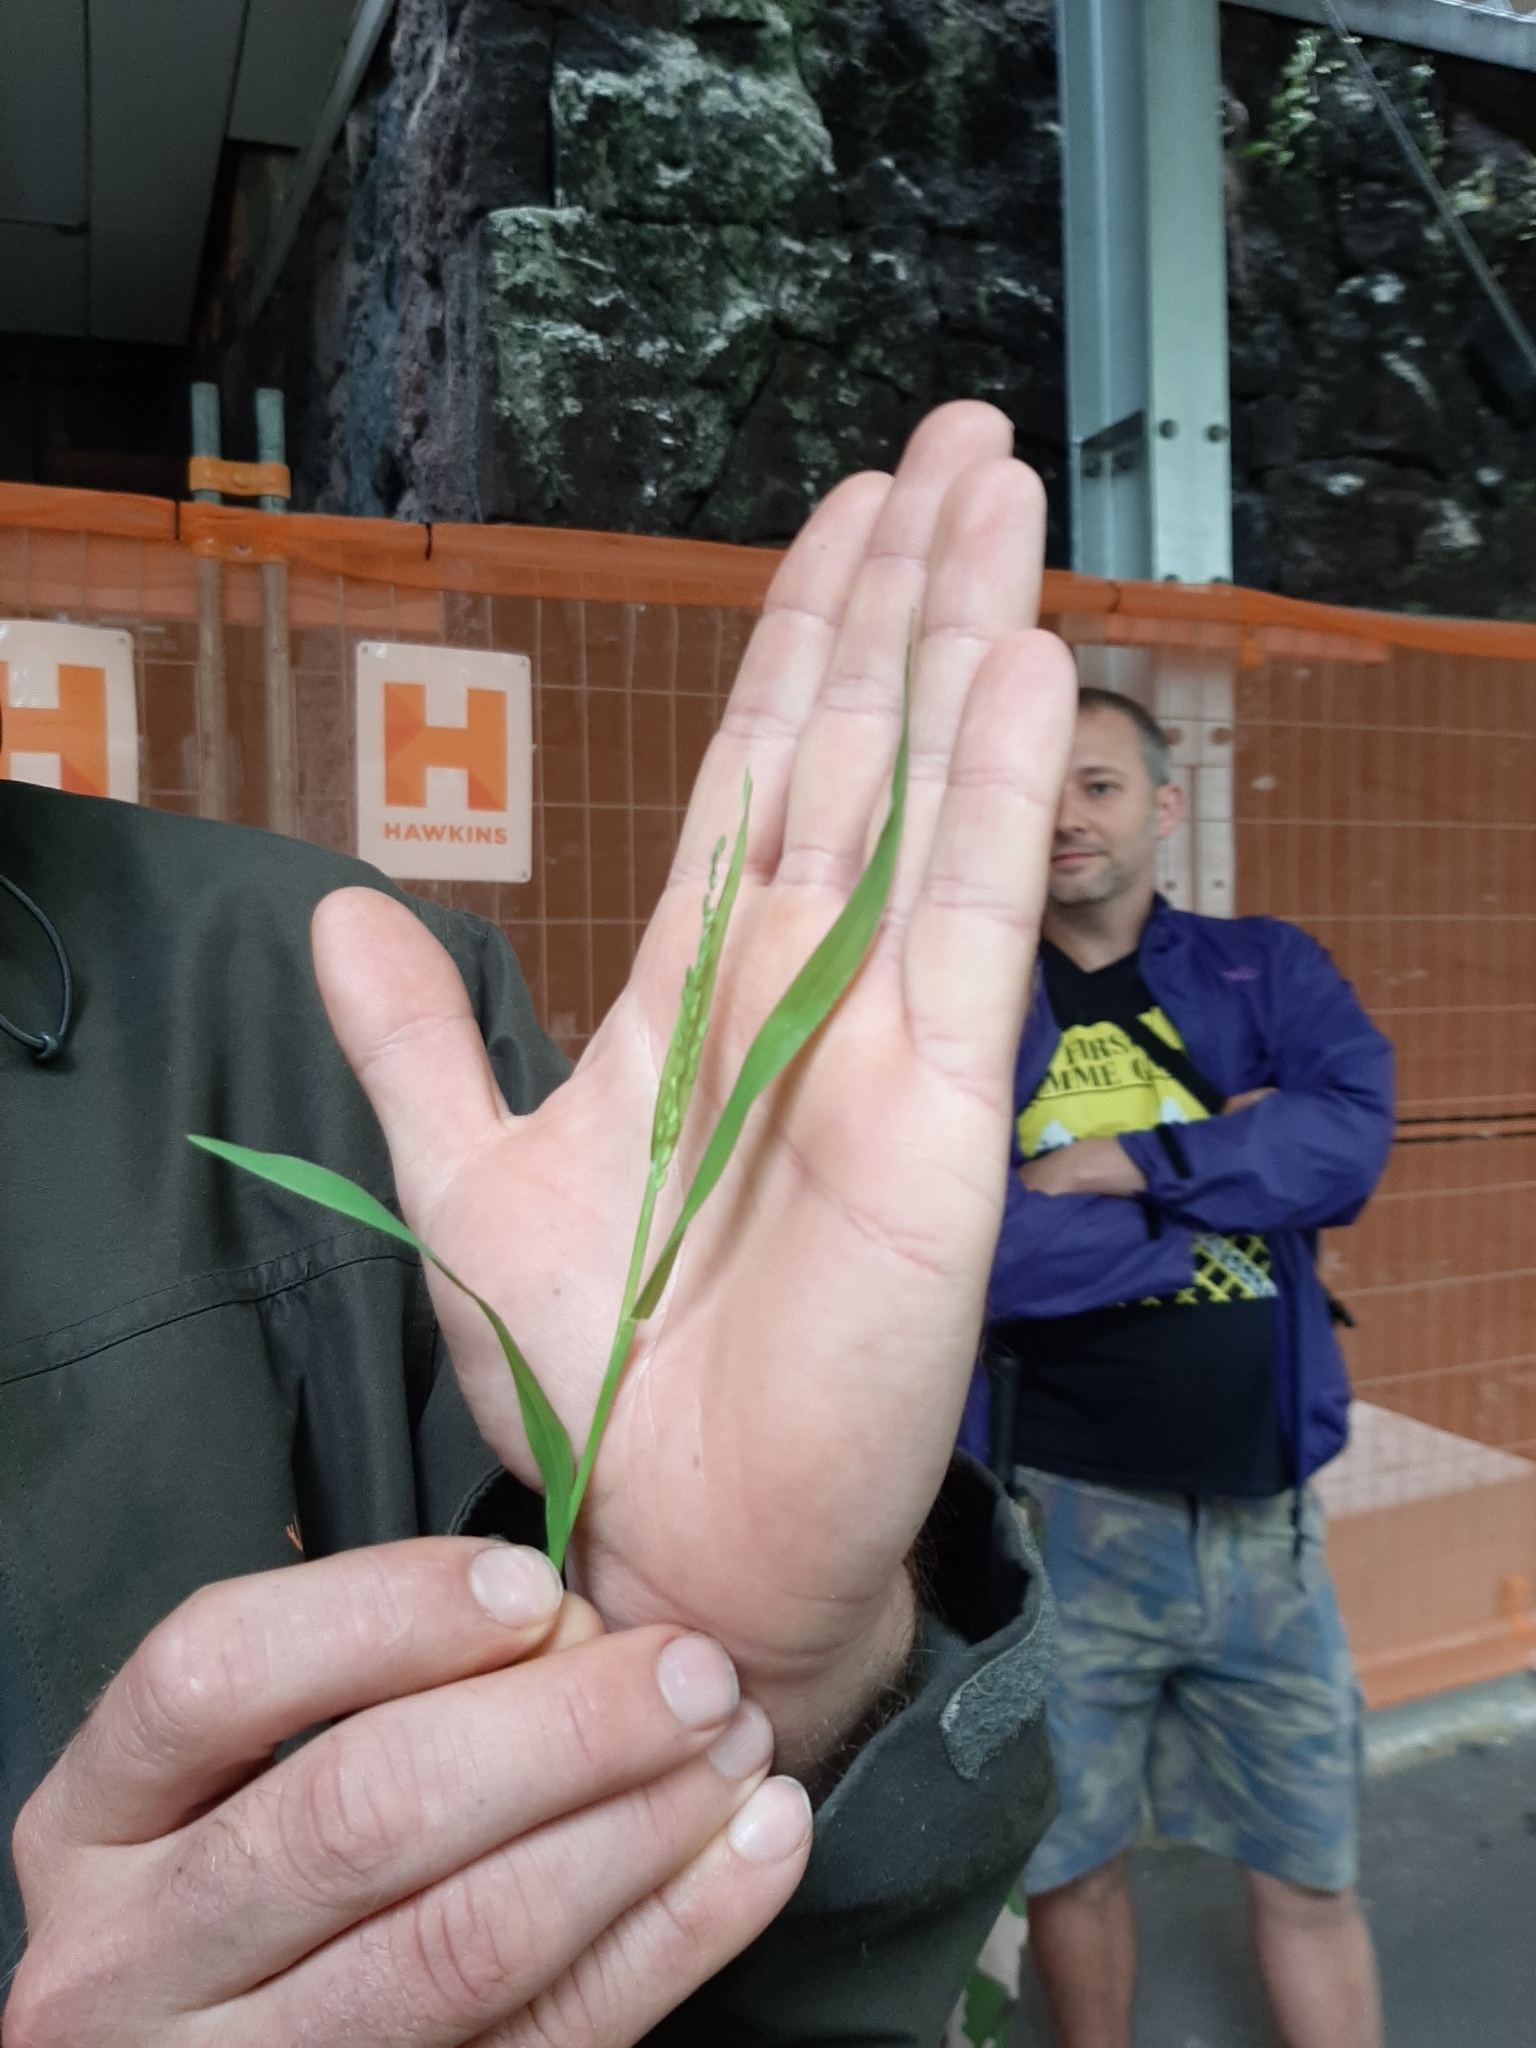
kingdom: Plantae
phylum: Tracheophyta
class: Liliopsida
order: Poales
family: Poaceae
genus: Ehrharta
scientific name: Ehrharta erecta
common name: Panic veldtgrass
